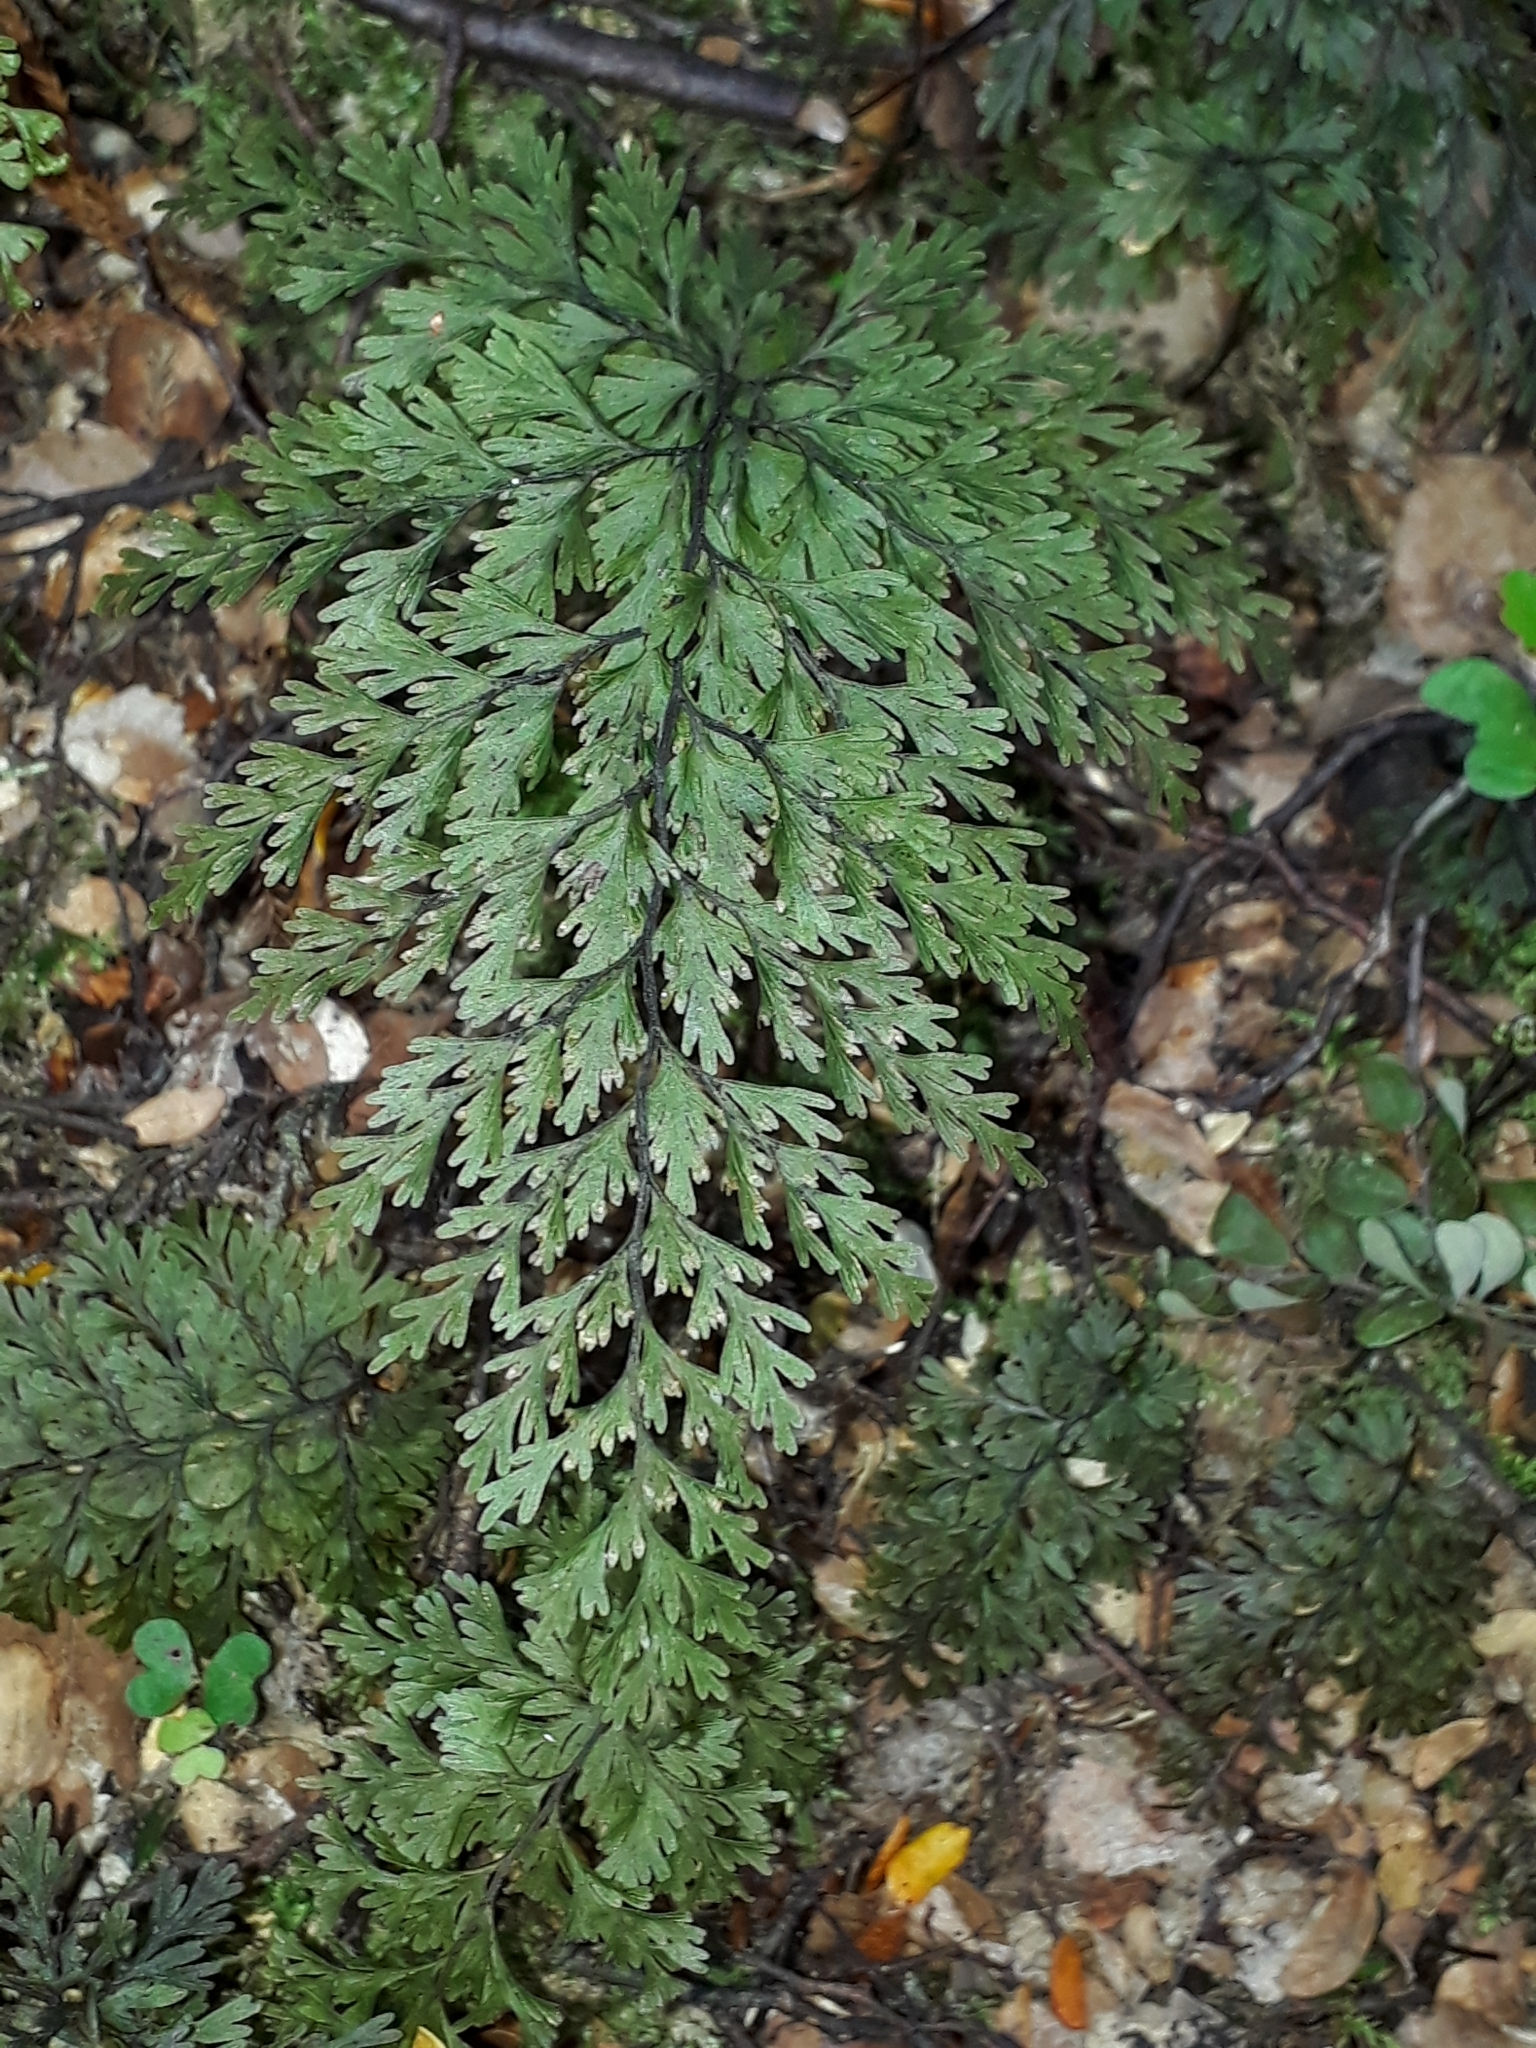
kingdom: Plantae
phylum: Tracheophyta
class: Polypodiopsida
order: Hymenophyllales
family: Hymenophyllaceae
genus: Hymenophyllum
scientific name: Hymenophyllum demissum
